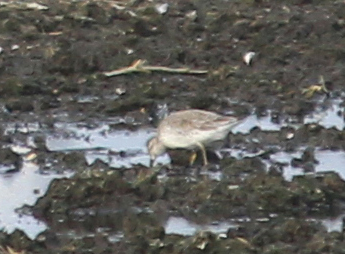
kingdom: Animalia
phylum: Chordata
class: Aves
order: Charadriiformes
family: Scolopacidae
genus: Calidris
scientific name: Calidris canutus
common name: Red knot
